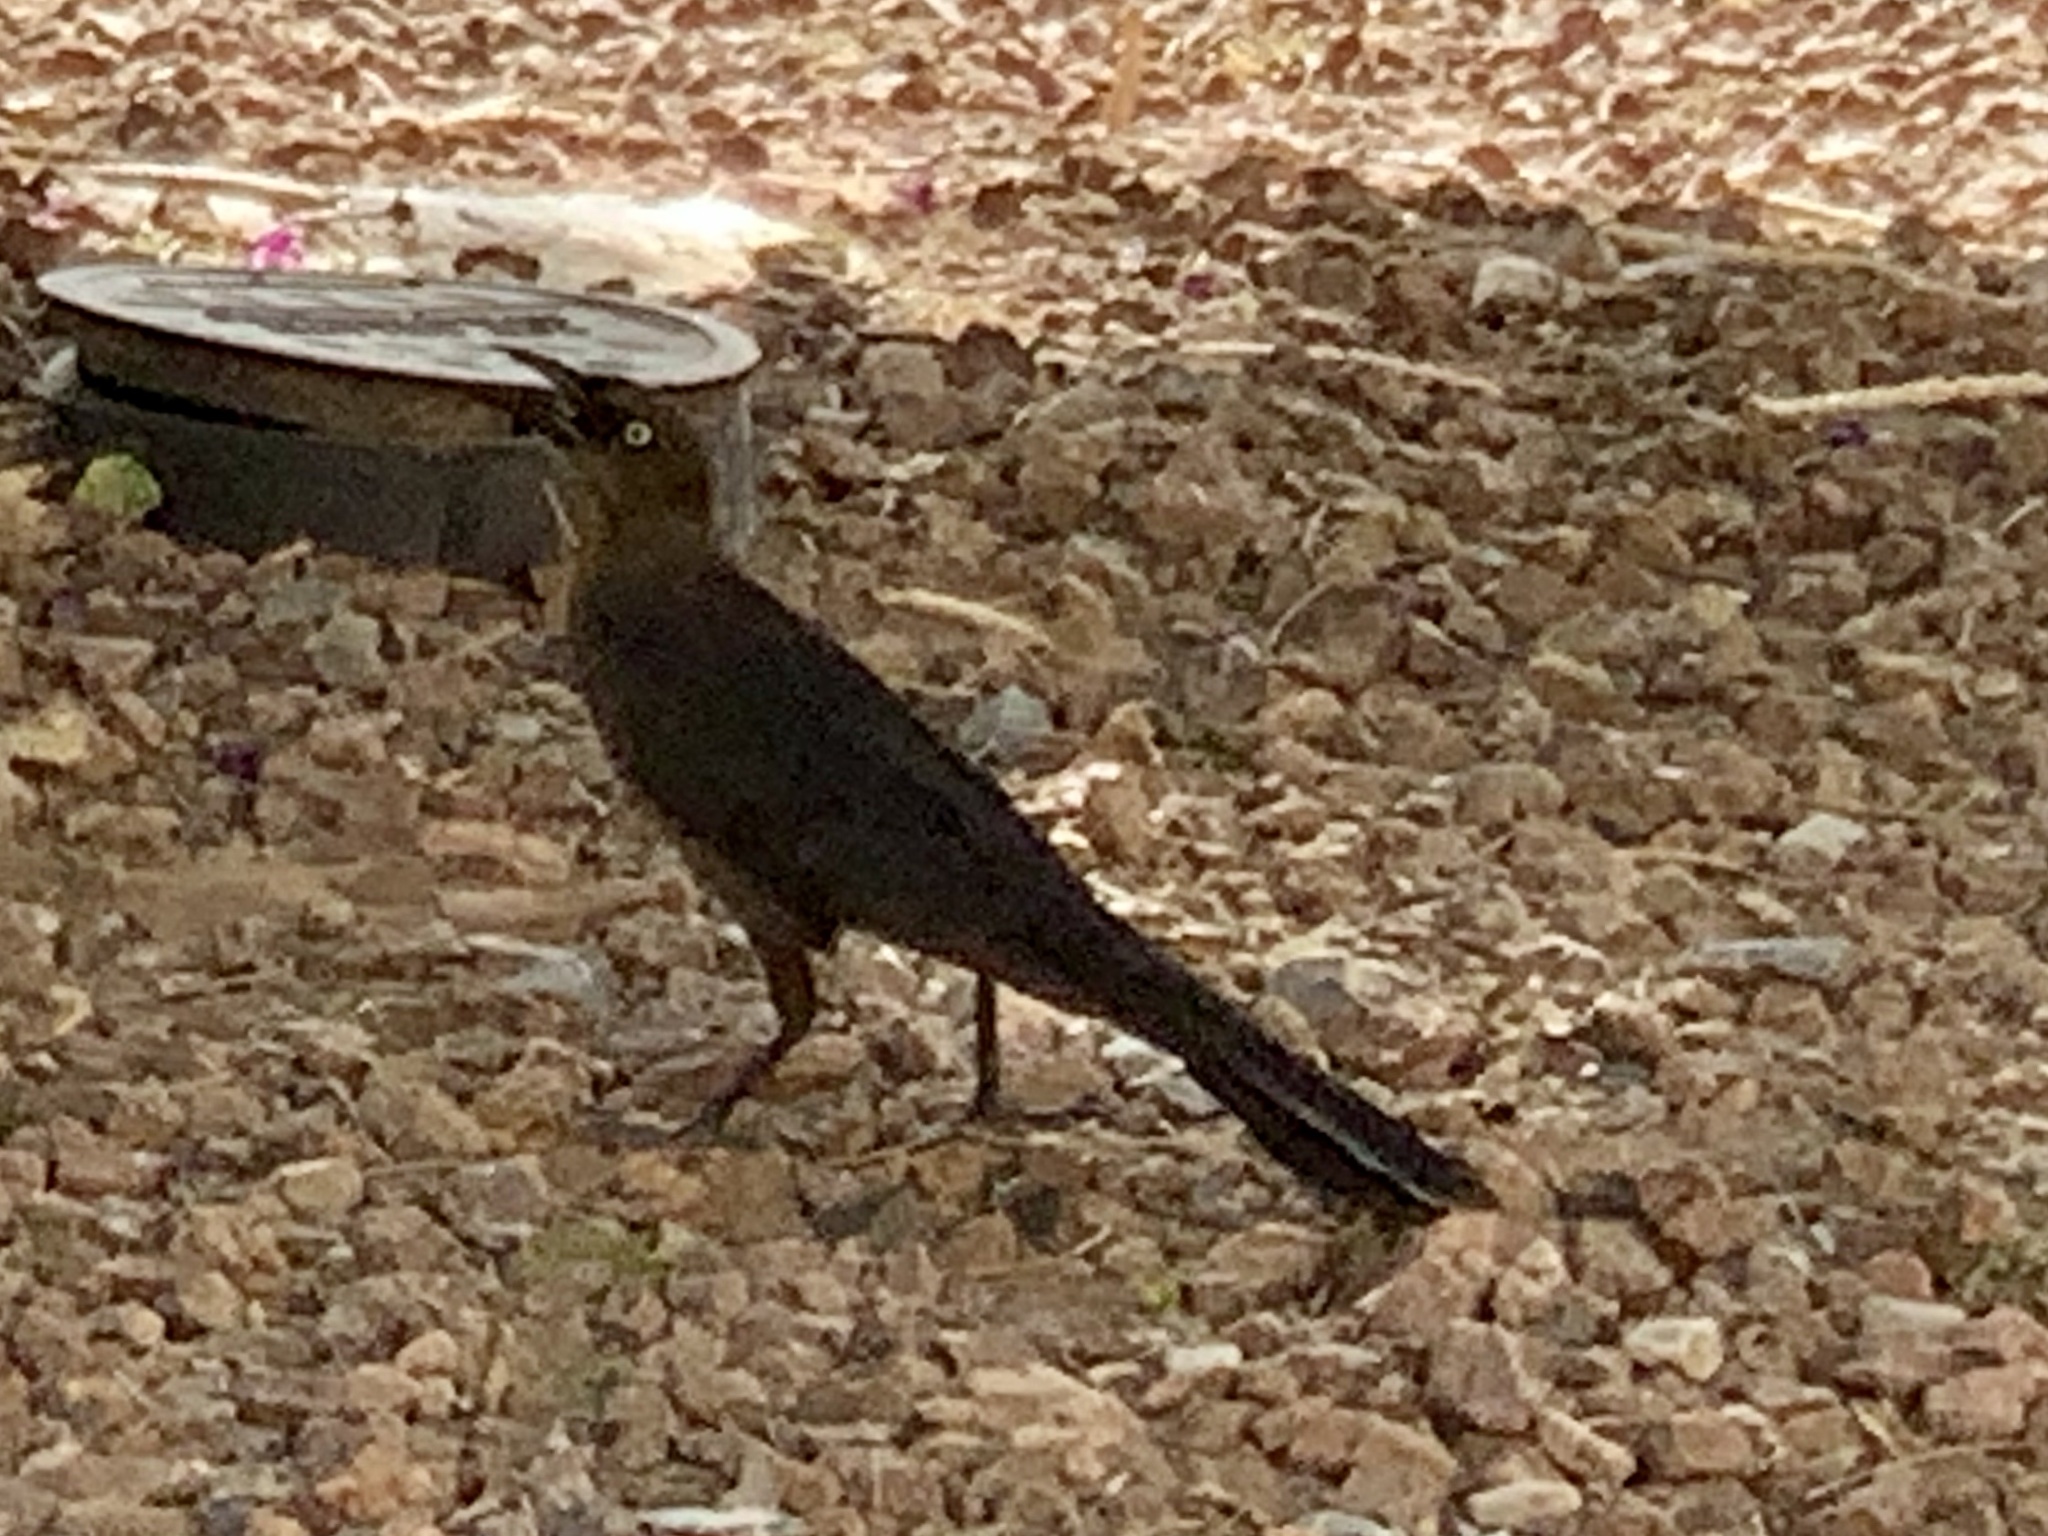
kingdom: Animalia
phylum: Chordata
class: Aves
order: Passeriformes
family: Icteridae
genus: Quiscalus
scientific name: Quiscalus mexicanus
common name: Great-tailed grackle
